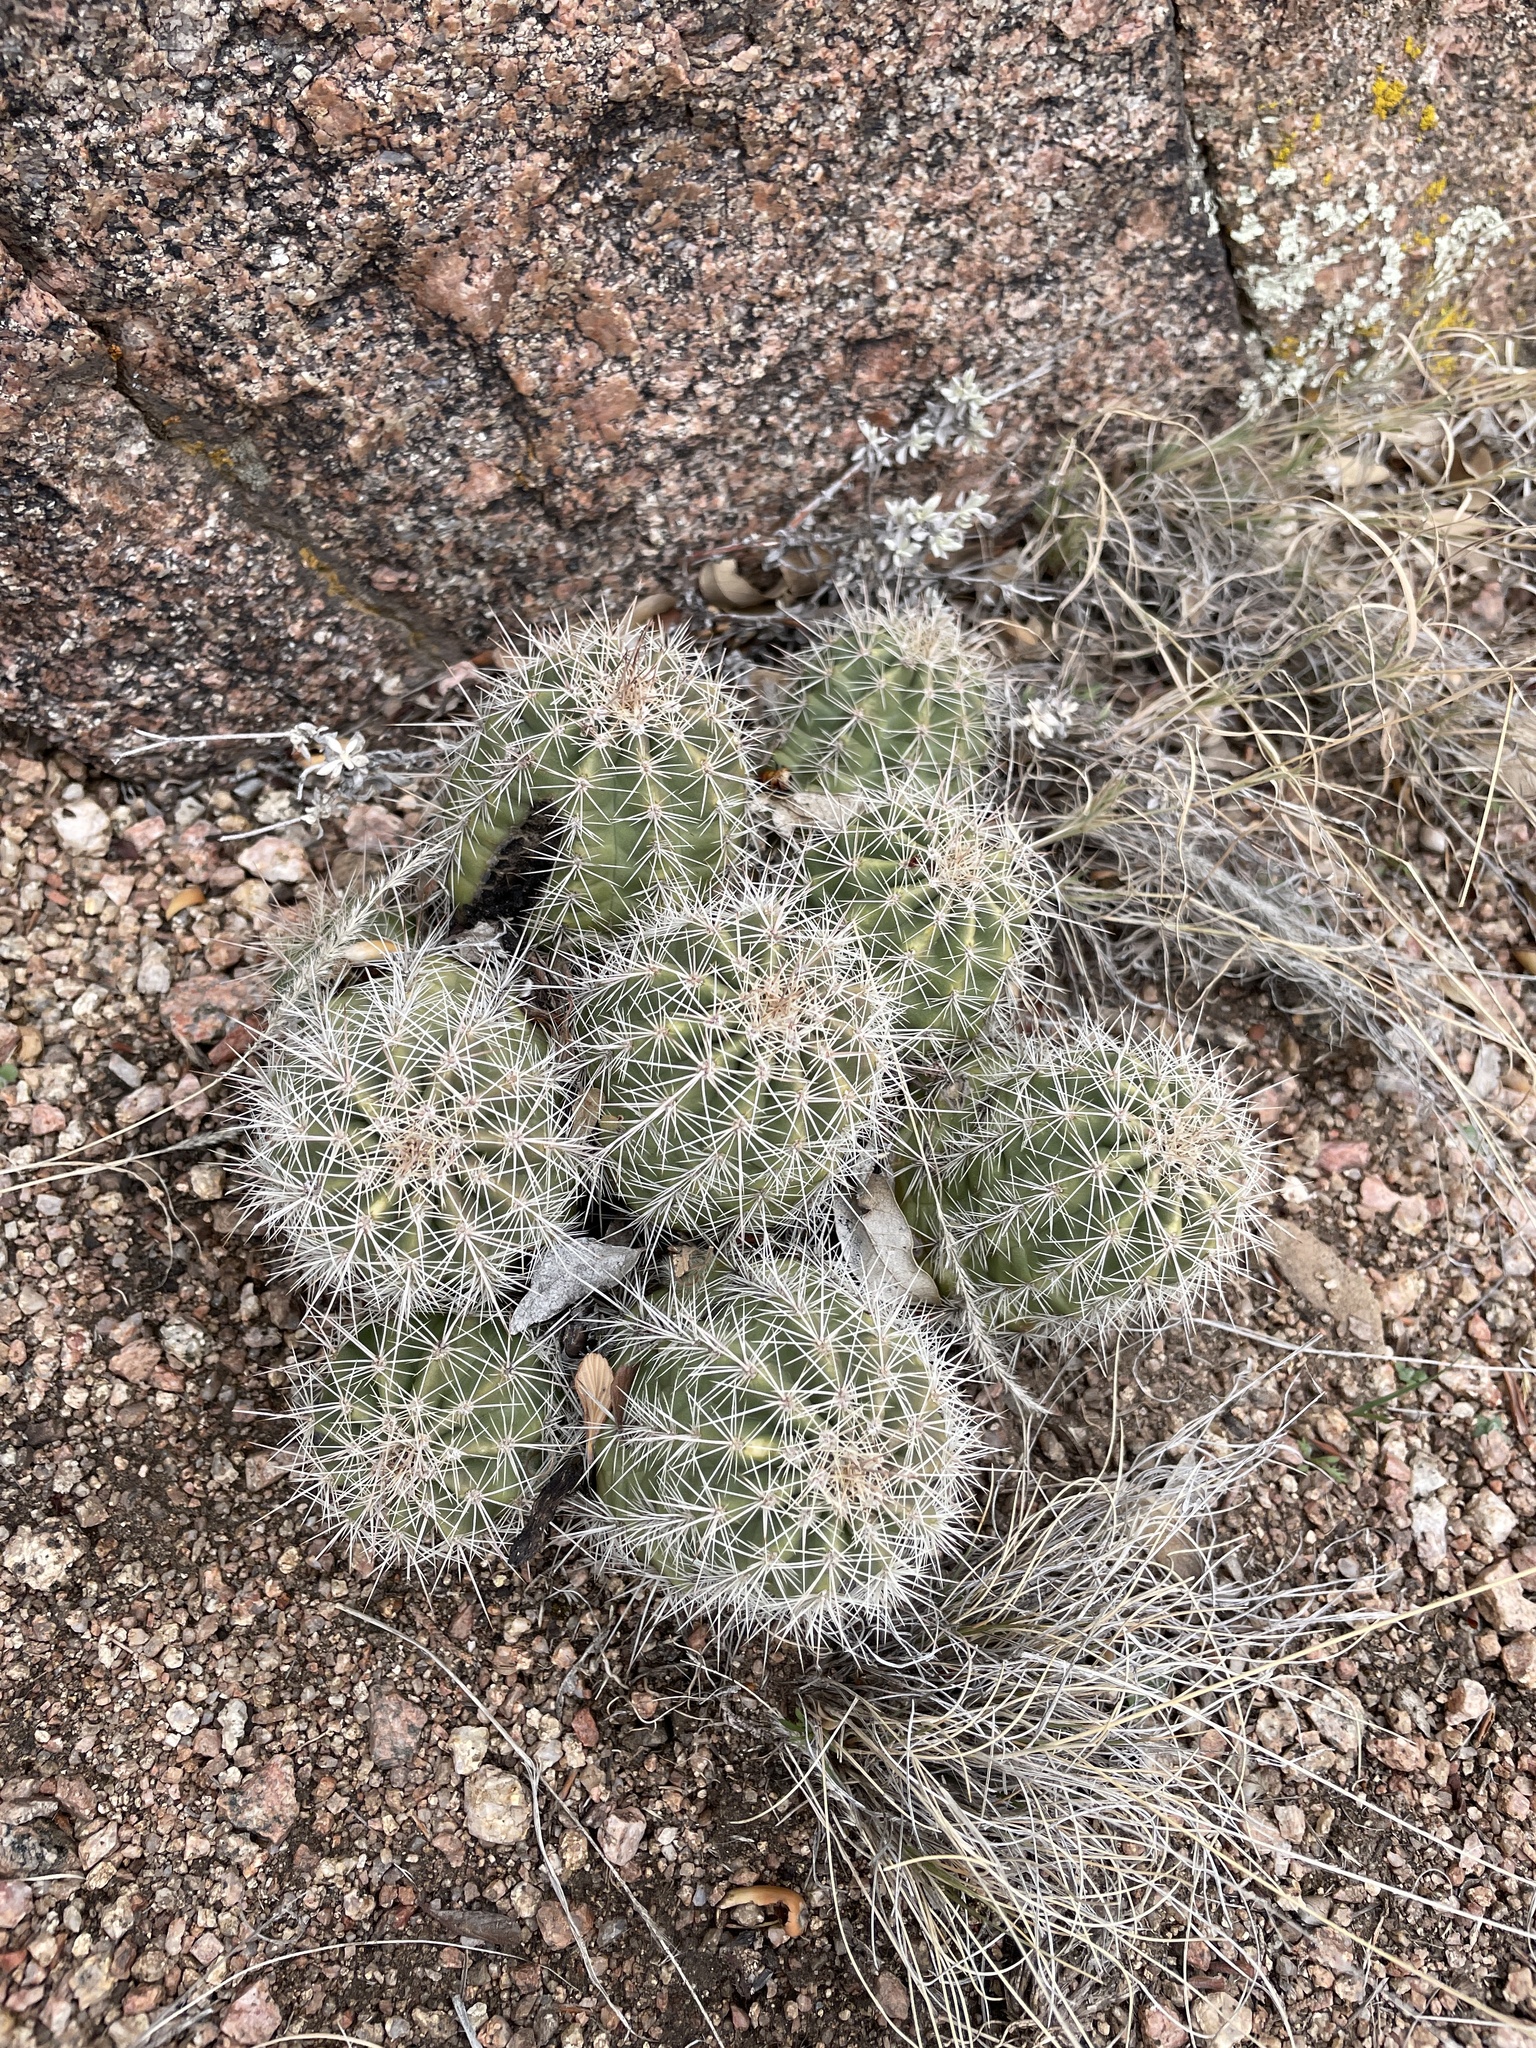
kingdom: Plantae
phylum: Tracheophyta
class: Magnoliopsida
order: Caryophyllales
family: Cactaceae
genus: Echinocereus
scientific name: Echinocereus coccineus
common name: Scarlet hedgehog cactus
